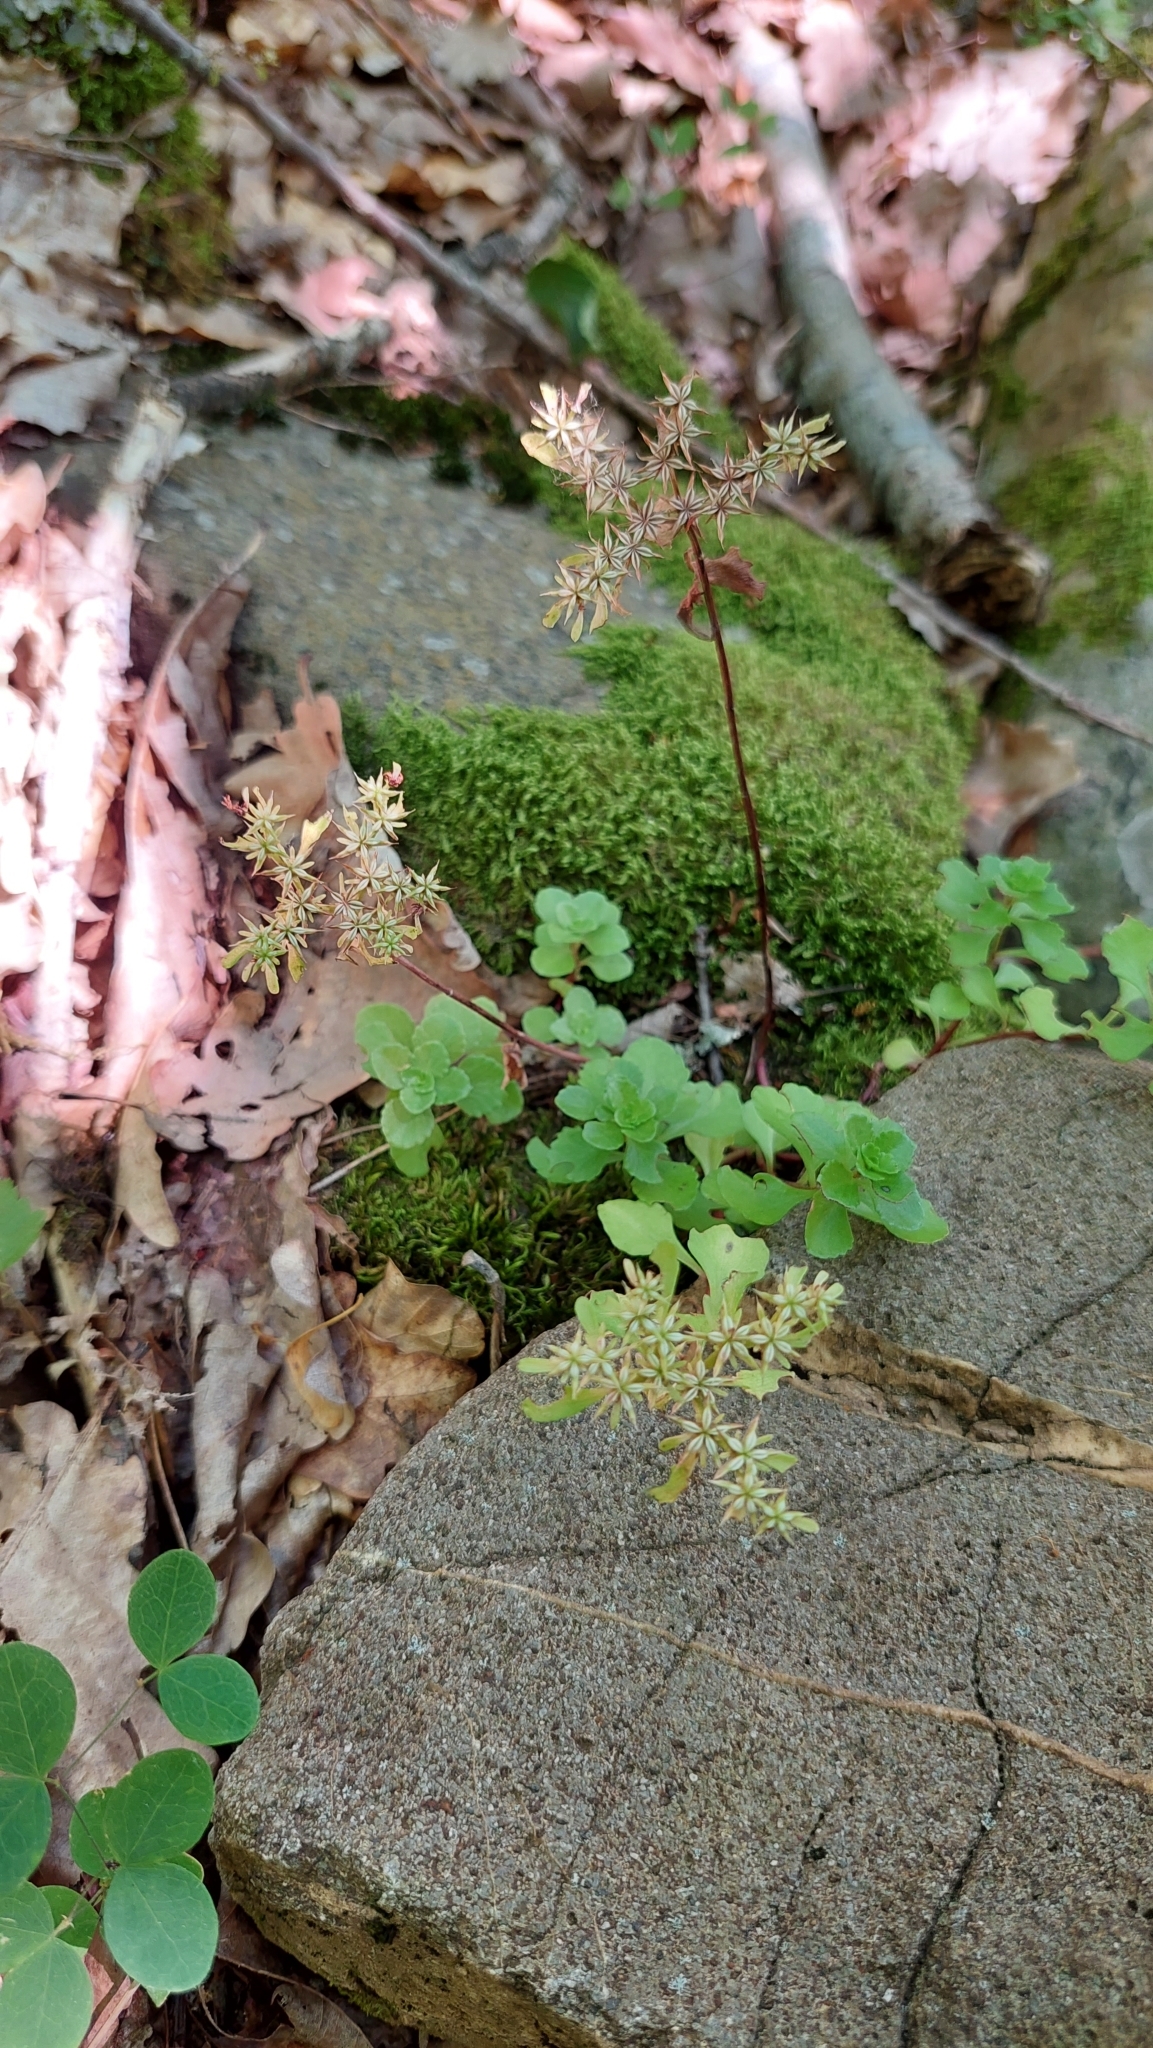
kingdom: Plantae
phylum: Tracheophyta
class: Magnoliopsida
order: Saxifragales
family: Crassulaceae
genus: Phedimus
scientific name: Phedimus stolonifer
